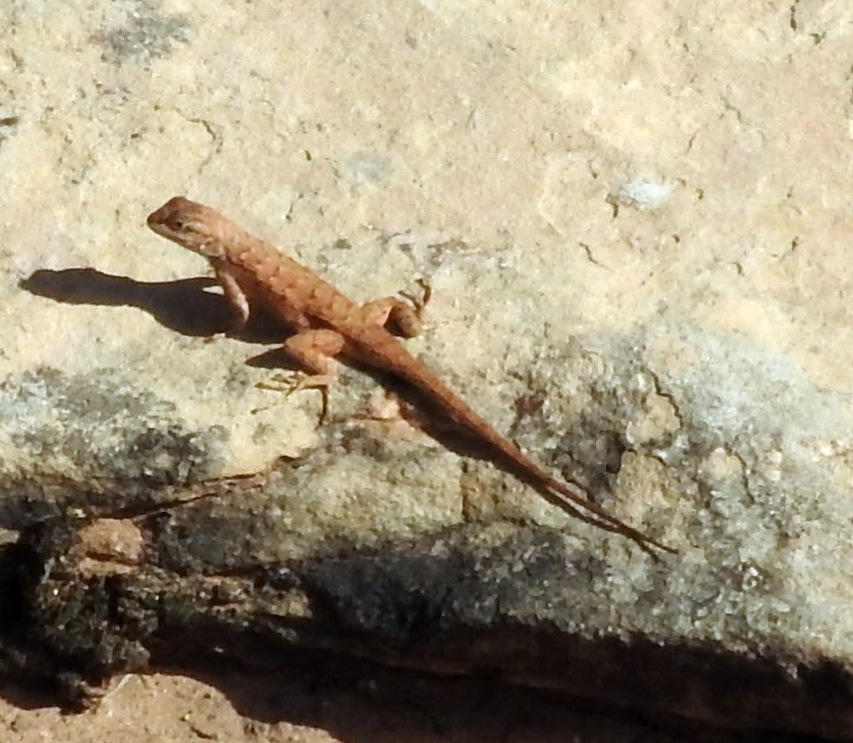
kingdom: Animalia
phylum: Chordata
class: Squamata
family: Phrynosomatidae
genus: Sceloporus
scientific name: Sceloporus tristichus
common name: Plateau fence lizard
